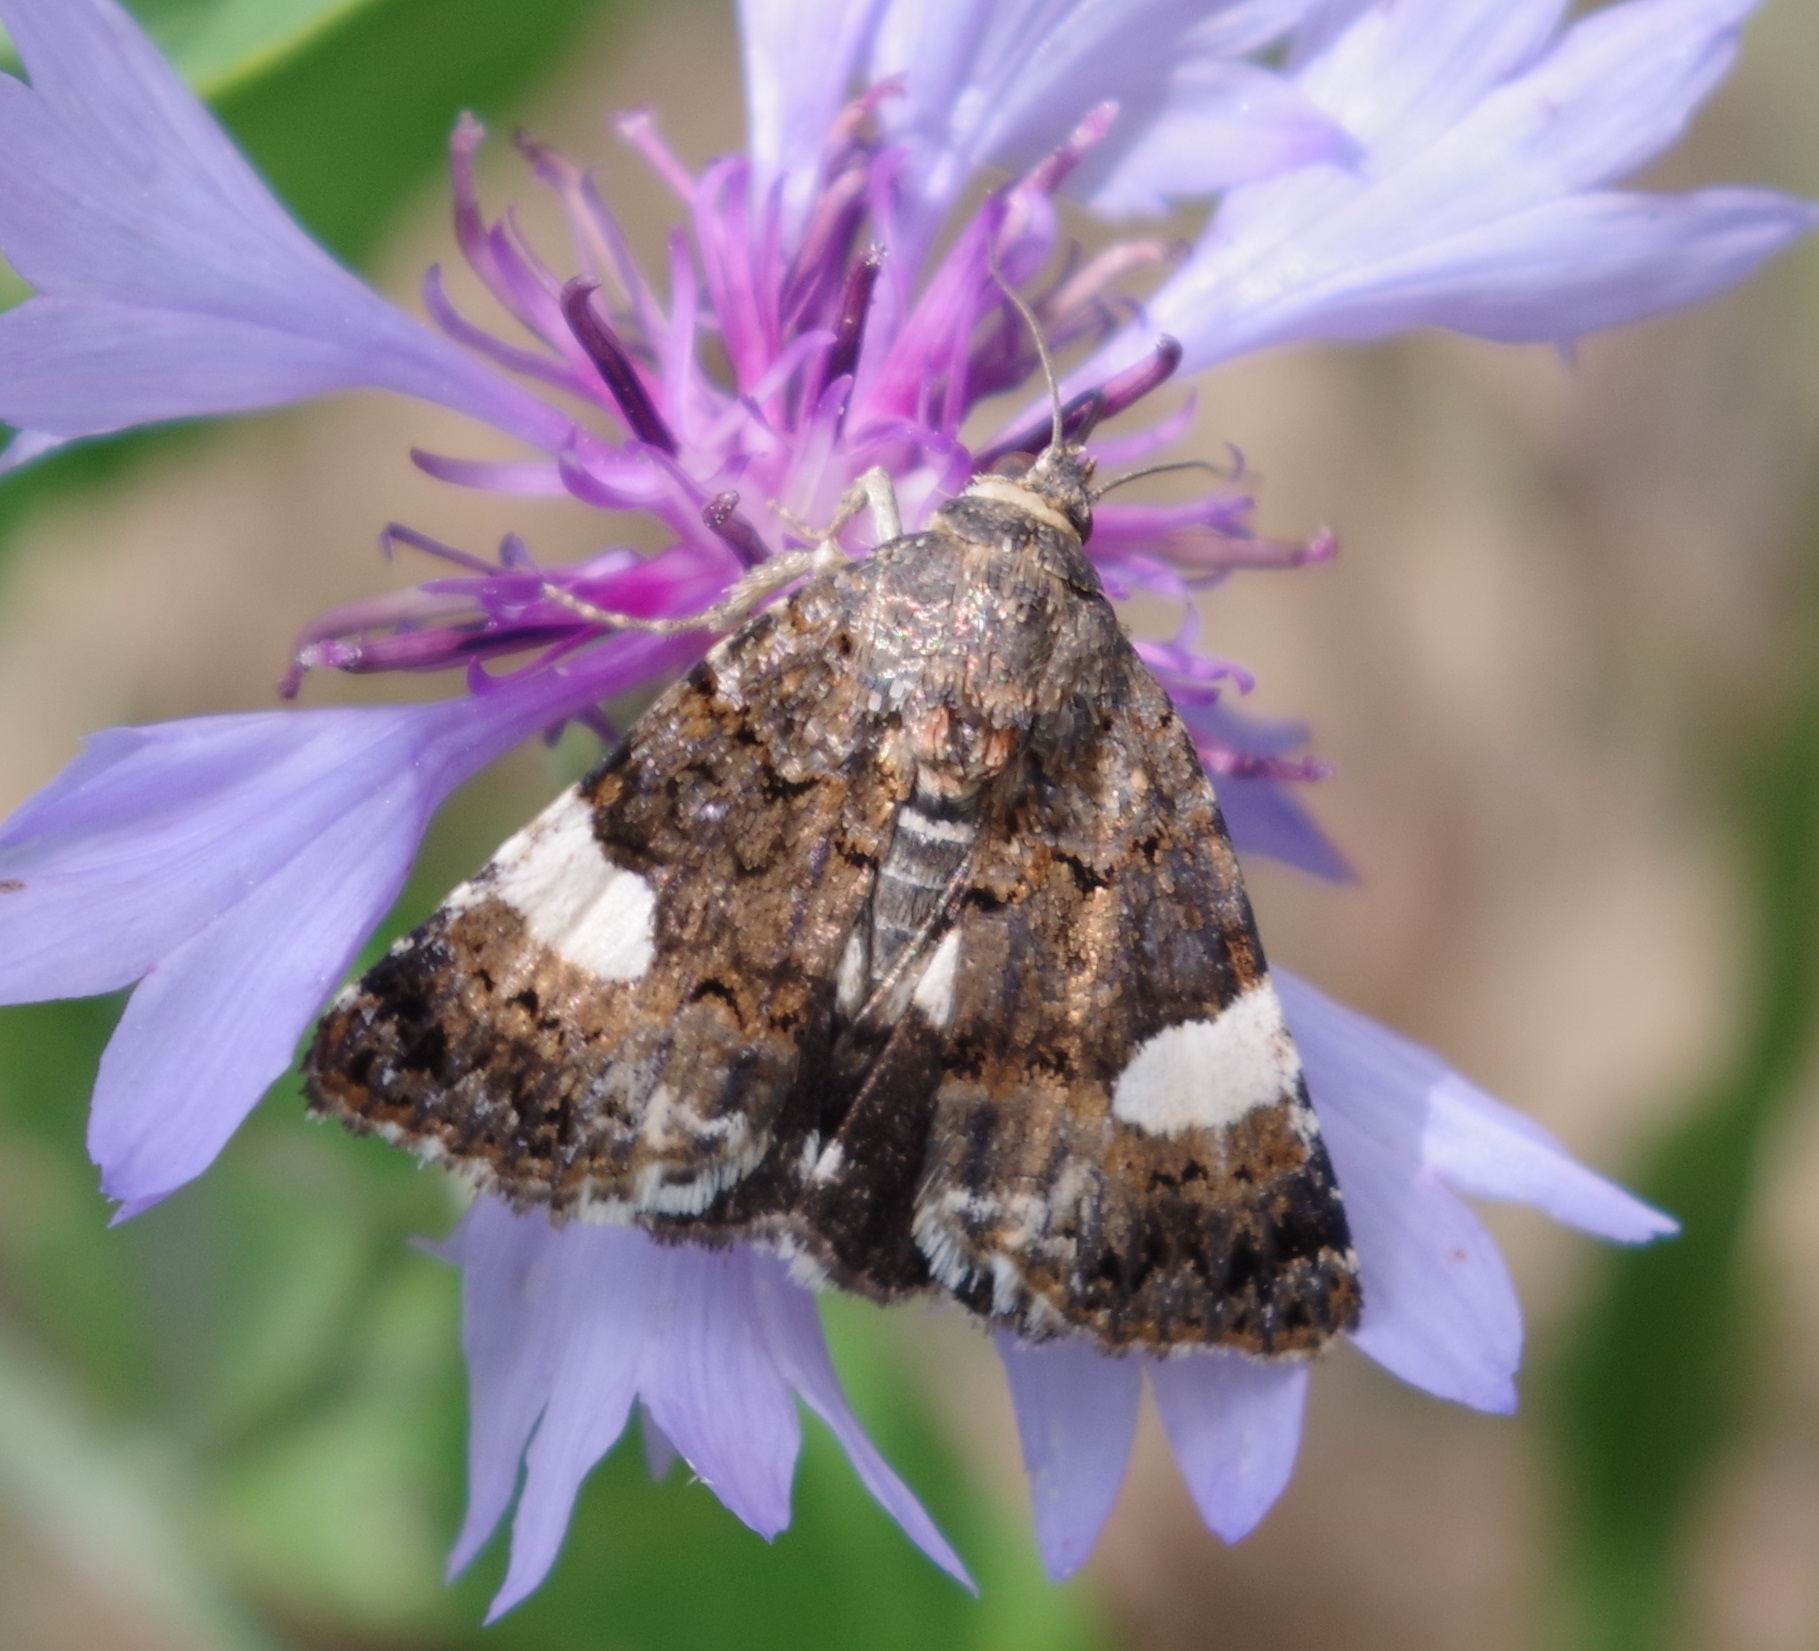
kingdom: Animalia
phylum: Arthropoda
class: Insecta
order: Lepidoptera
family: Erebidae
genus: Tyta
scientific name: Tyta luctuosa
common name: Four-spotted
